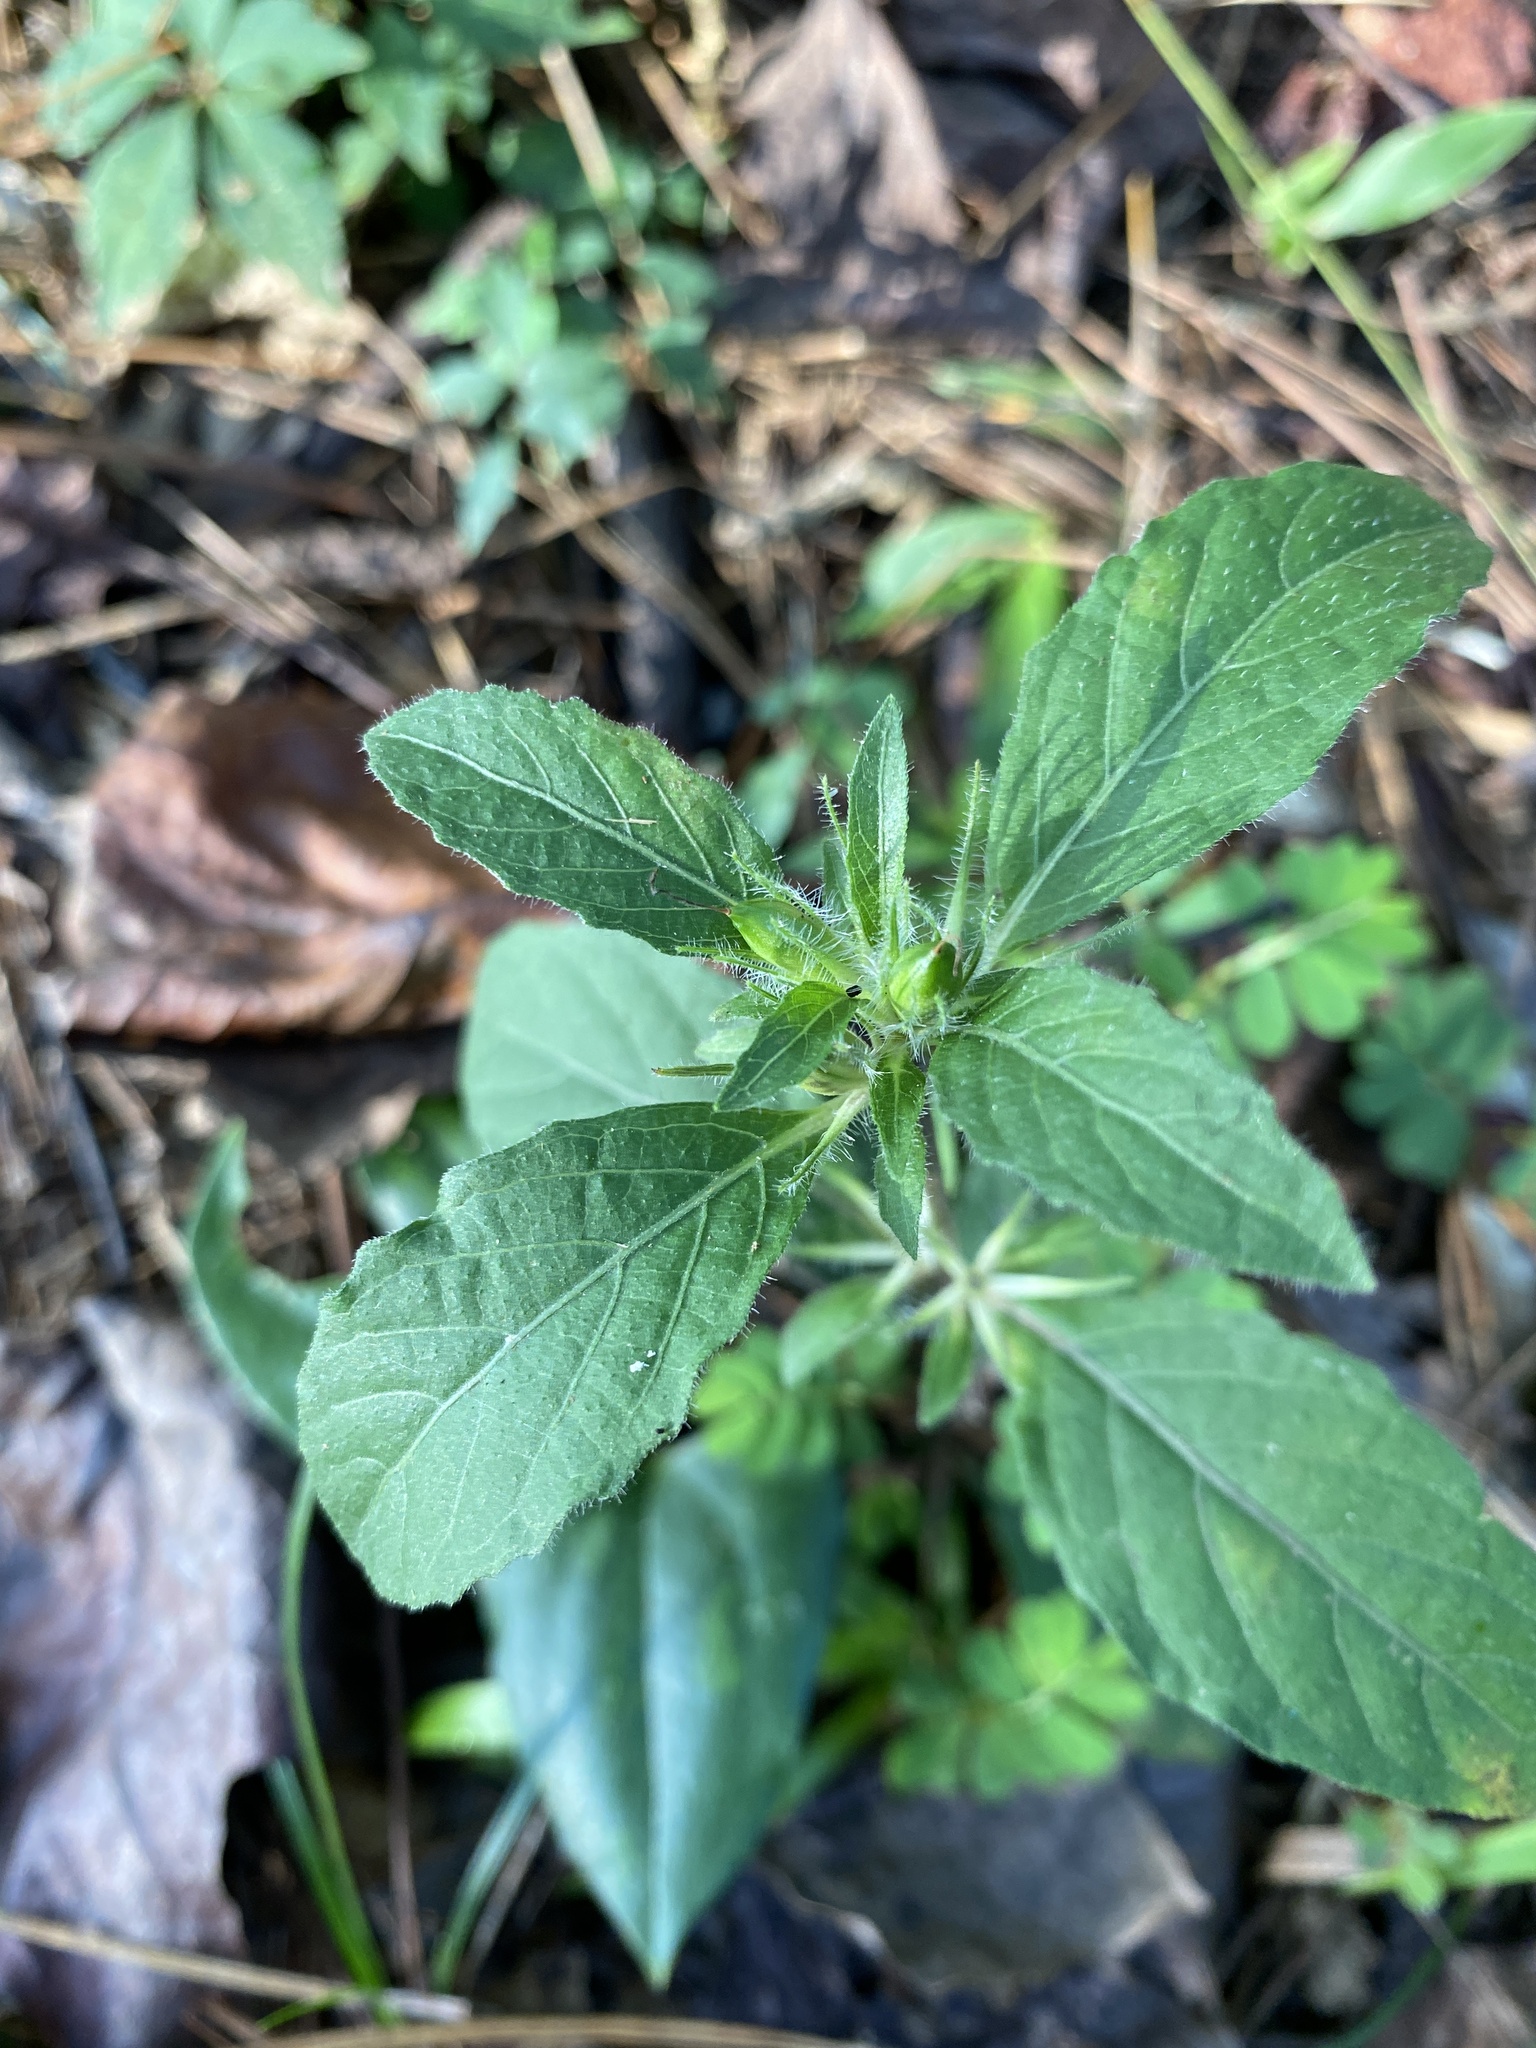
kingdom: Plantae
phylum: Tracheophyta
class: Magnoliopsida
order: Lamiales
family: Acanthaceae
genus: Ruellia
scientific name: Ruellia caroliniensis
